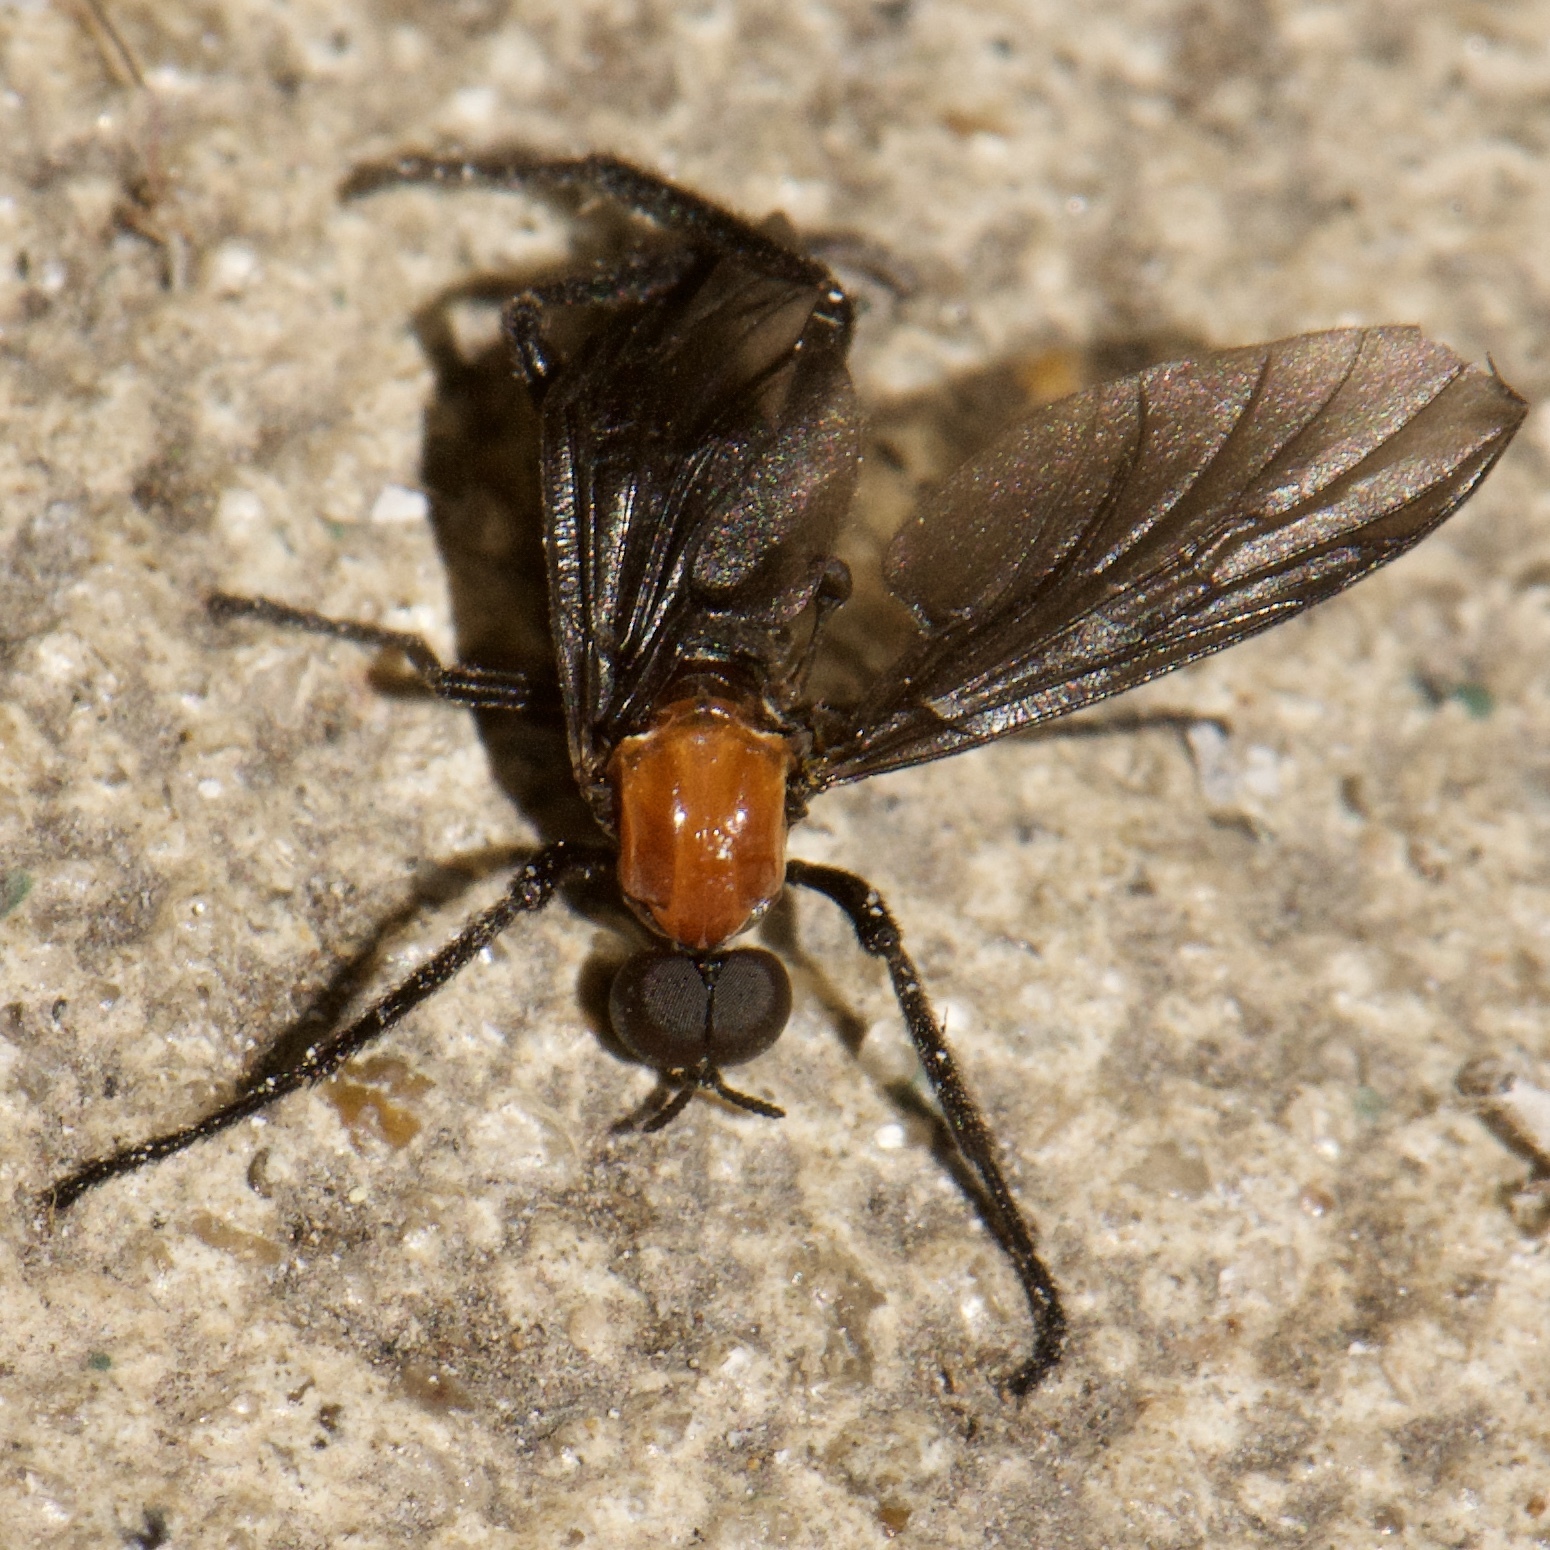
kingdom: Animalia
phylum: Arthropoda
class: Insecta
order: Diptera
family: Bibionidae
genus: Plecia
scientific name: Plecia nearctica
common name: March fly
